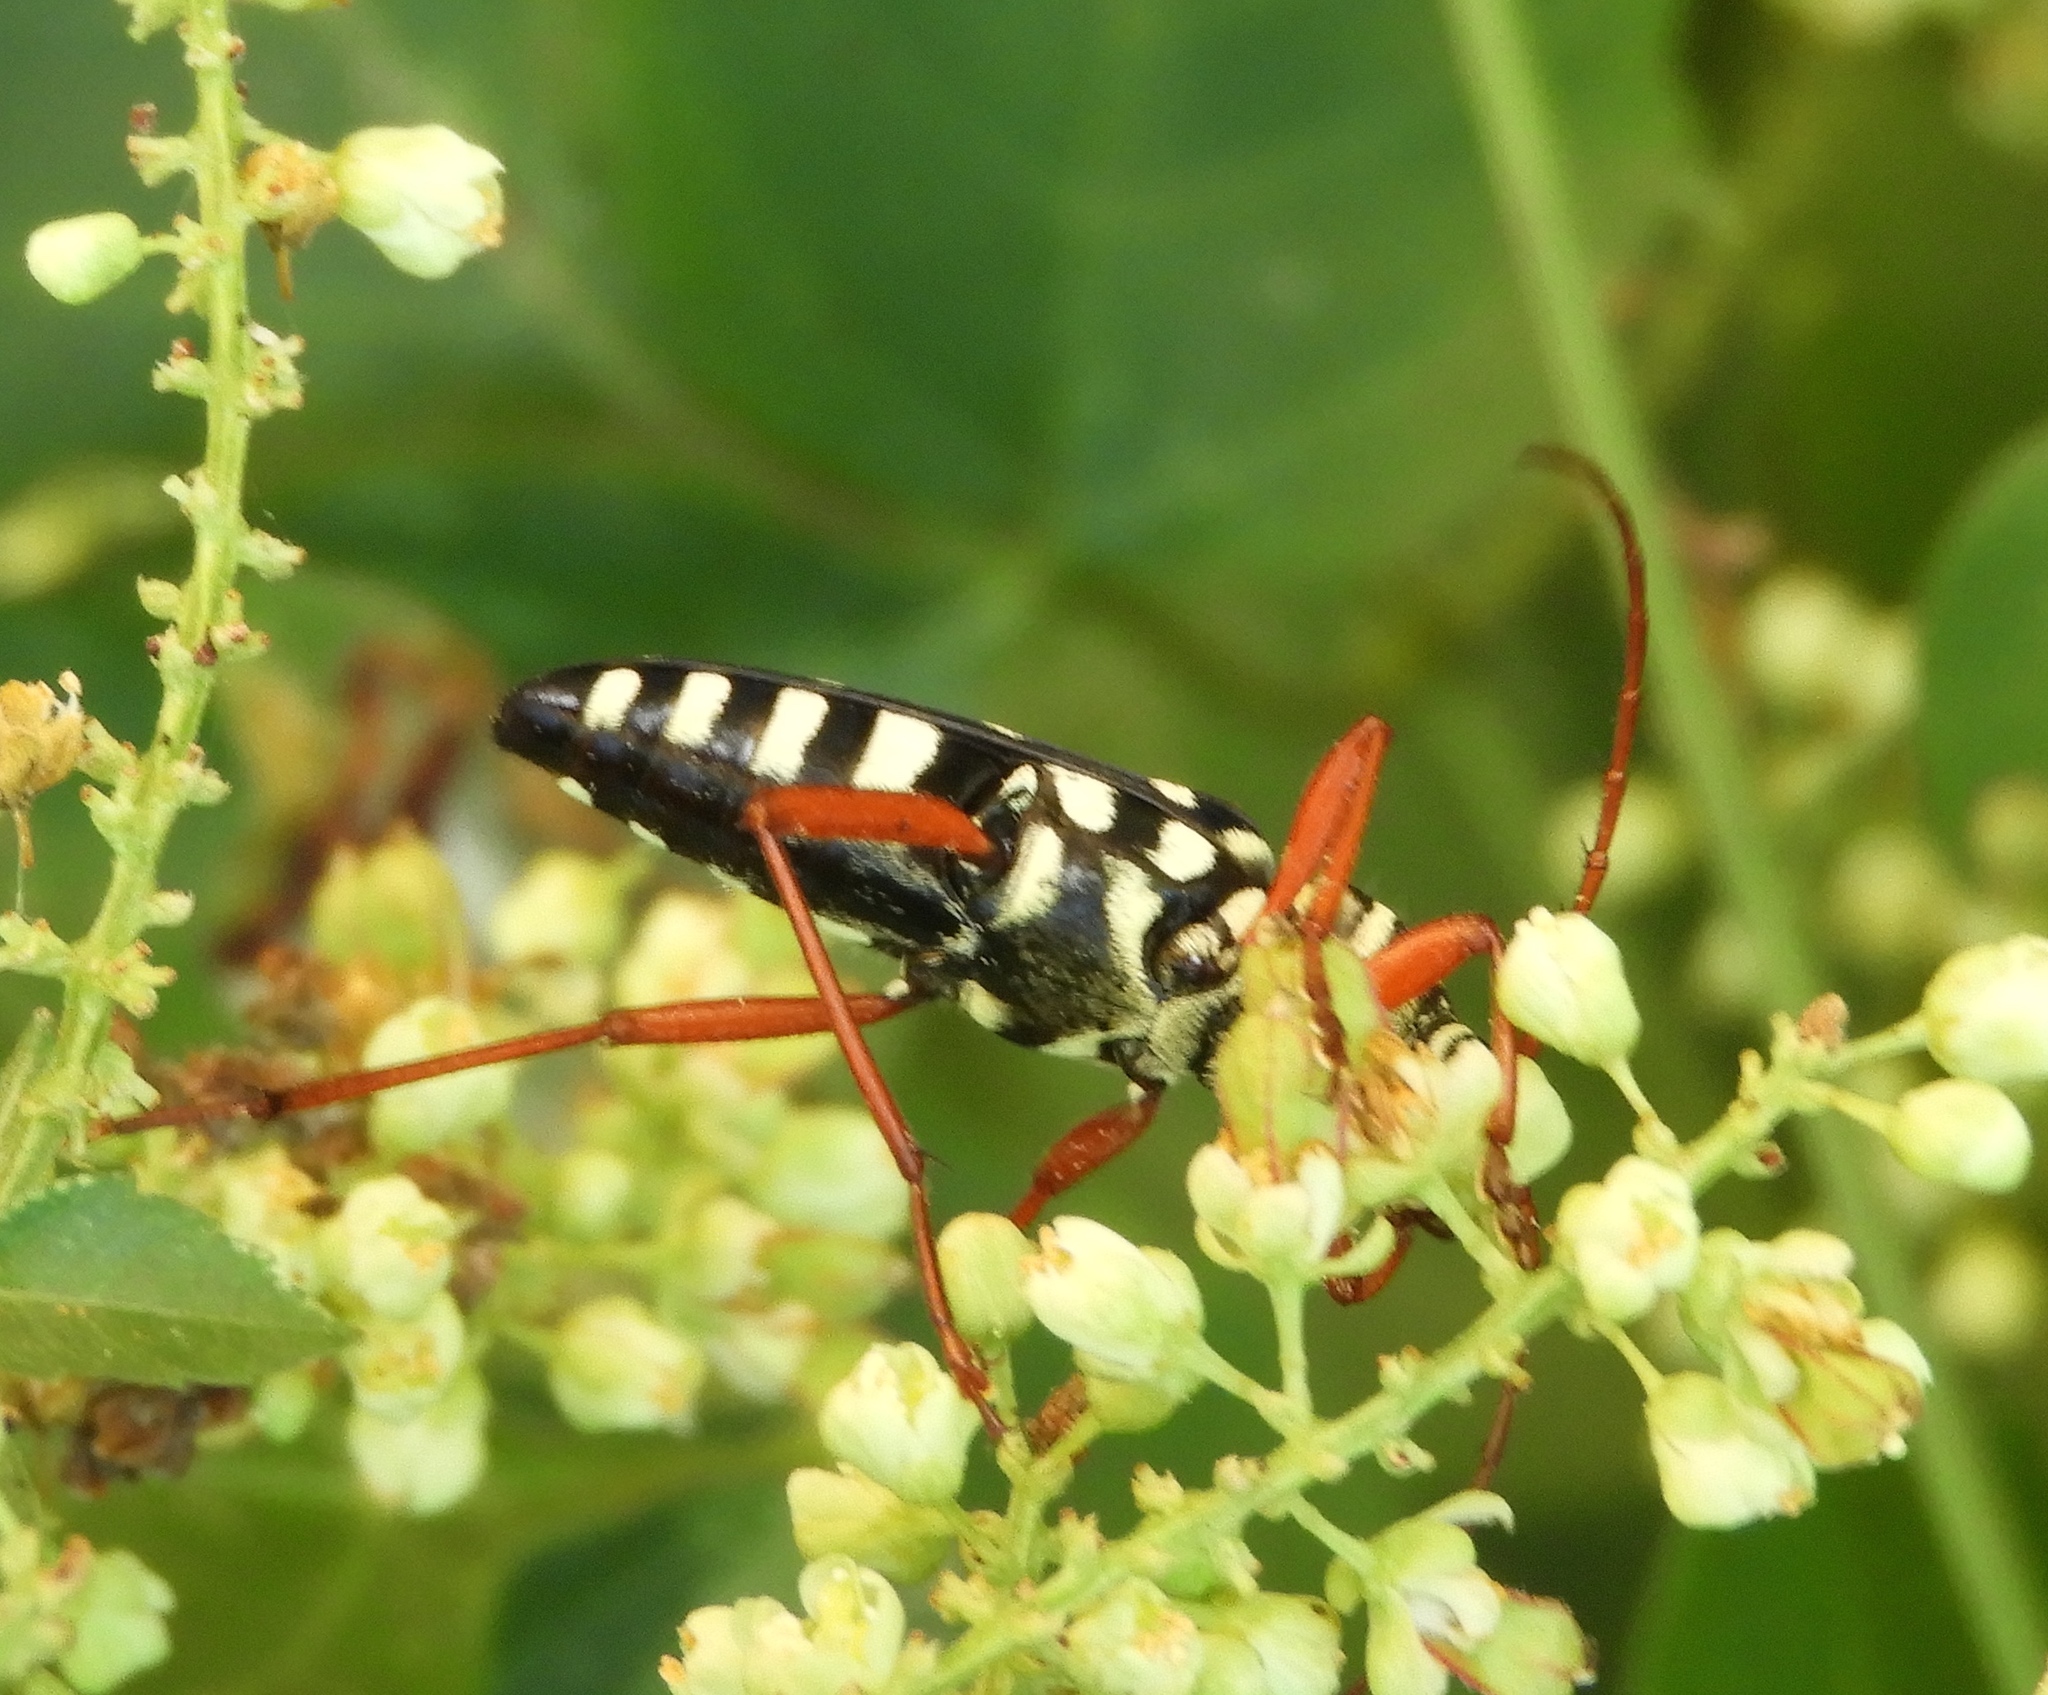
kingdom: Animalia
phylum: Arthropoda
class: Insecta
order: Coleoptera
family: Cerambycidae
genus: Placosternus
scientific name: Placosternus erythropus
